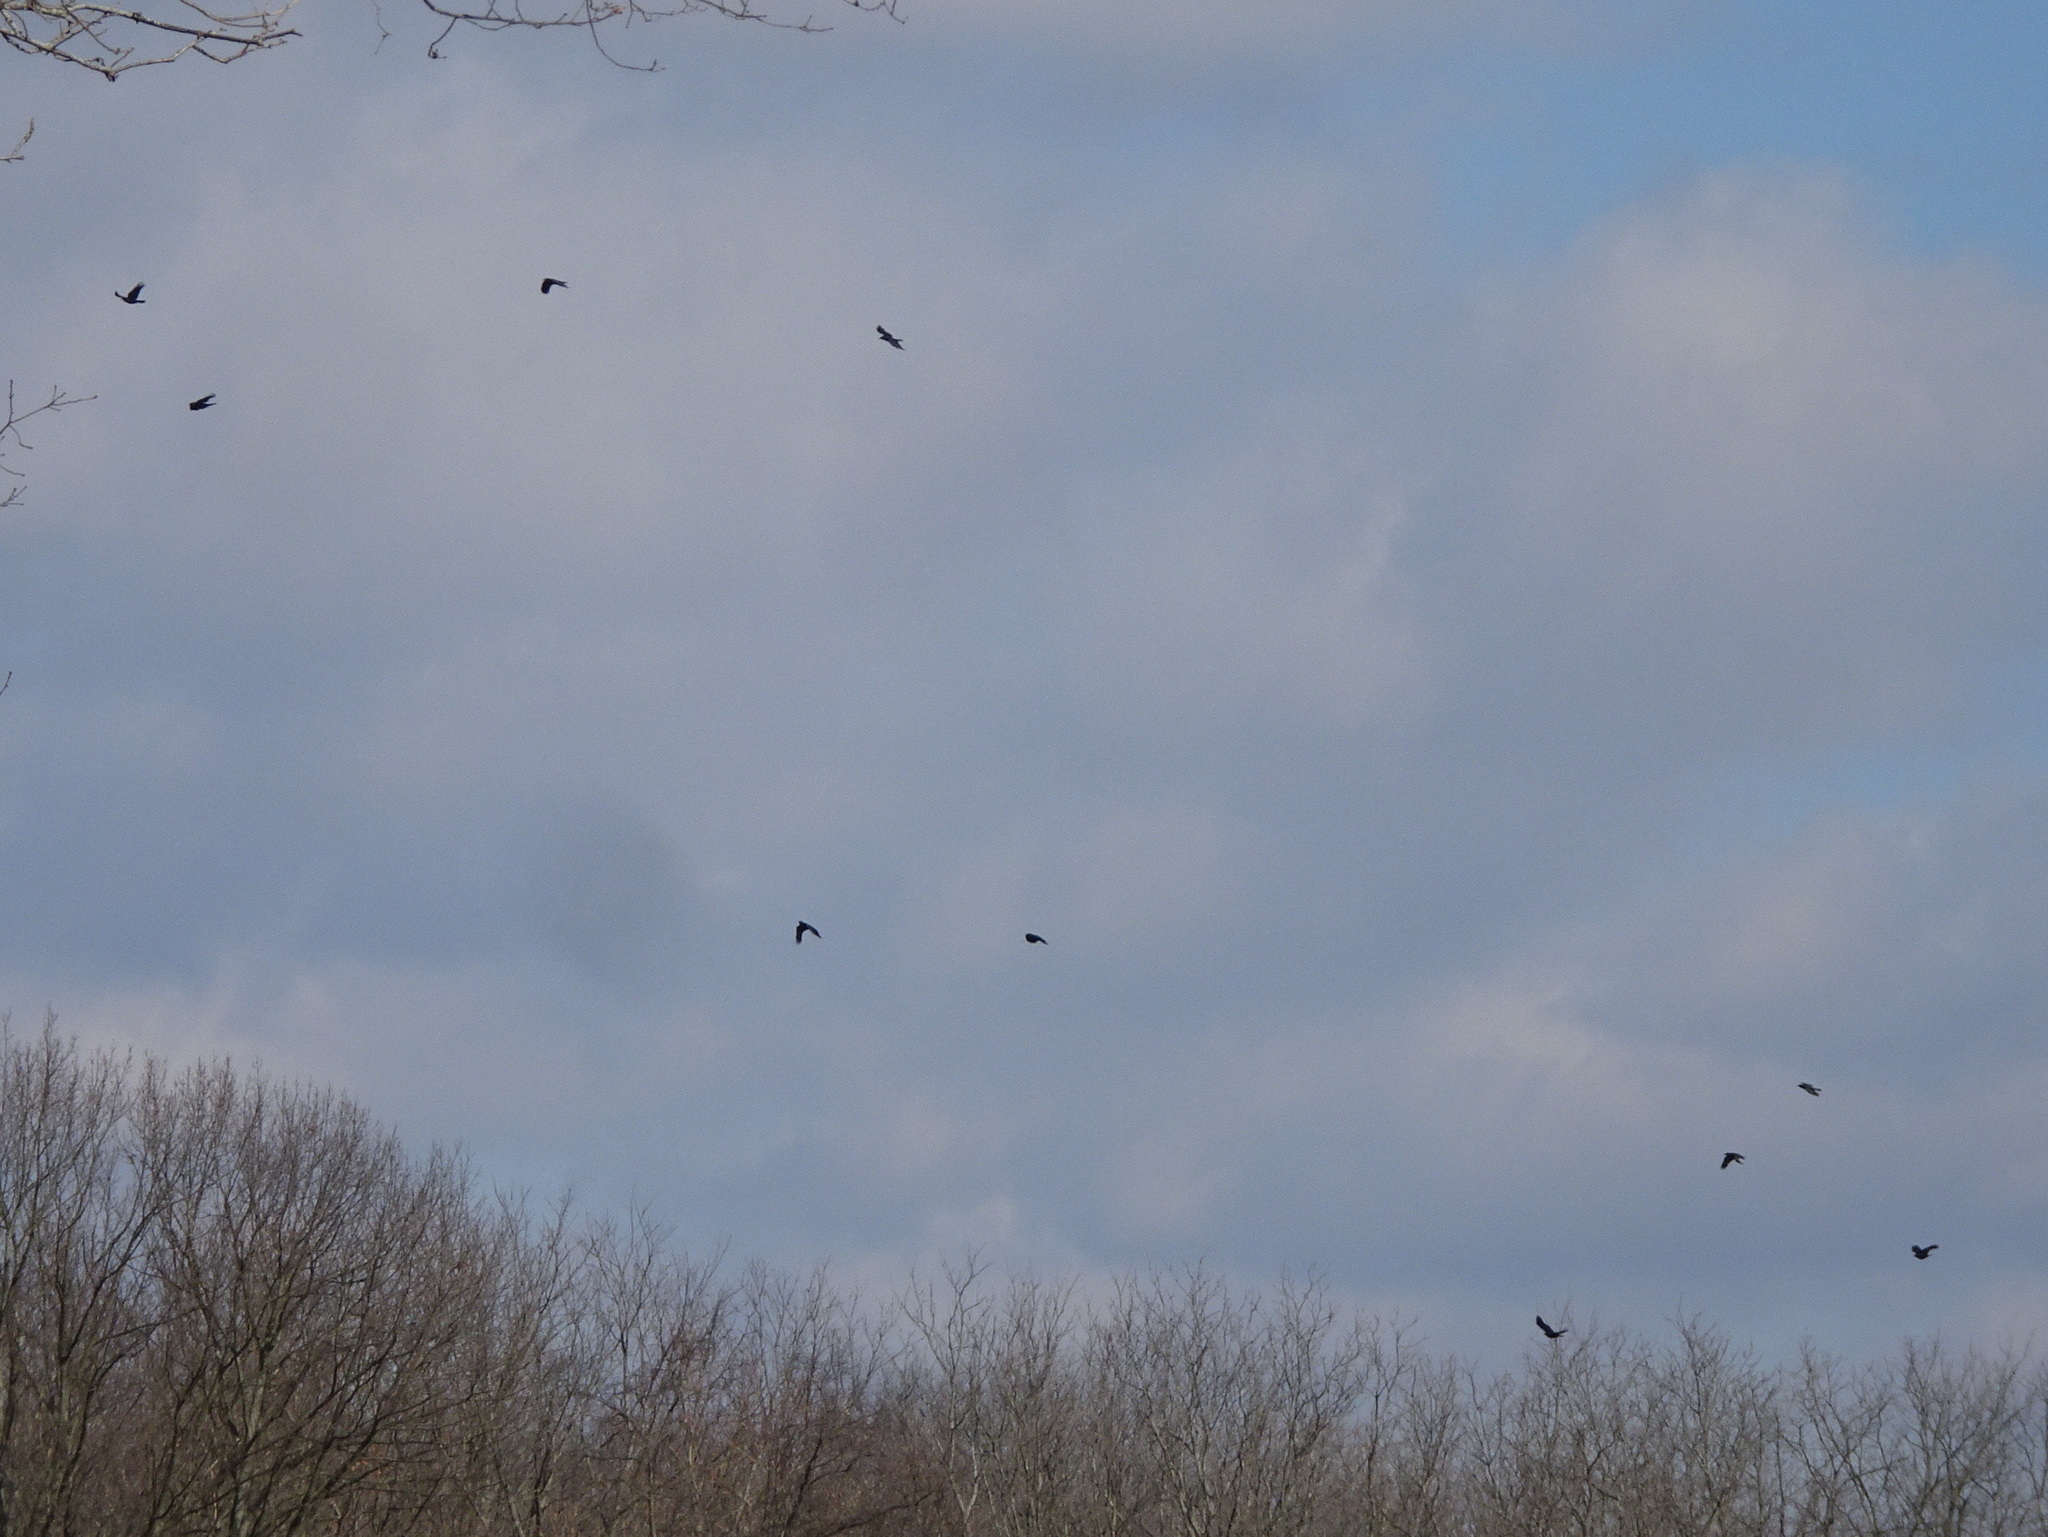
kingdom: Animalia
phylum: Chordata
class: Aves
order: Passeriformes
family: Corvidae
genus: Corvus
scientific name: Corvus brachyrhynchos
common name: American crow
